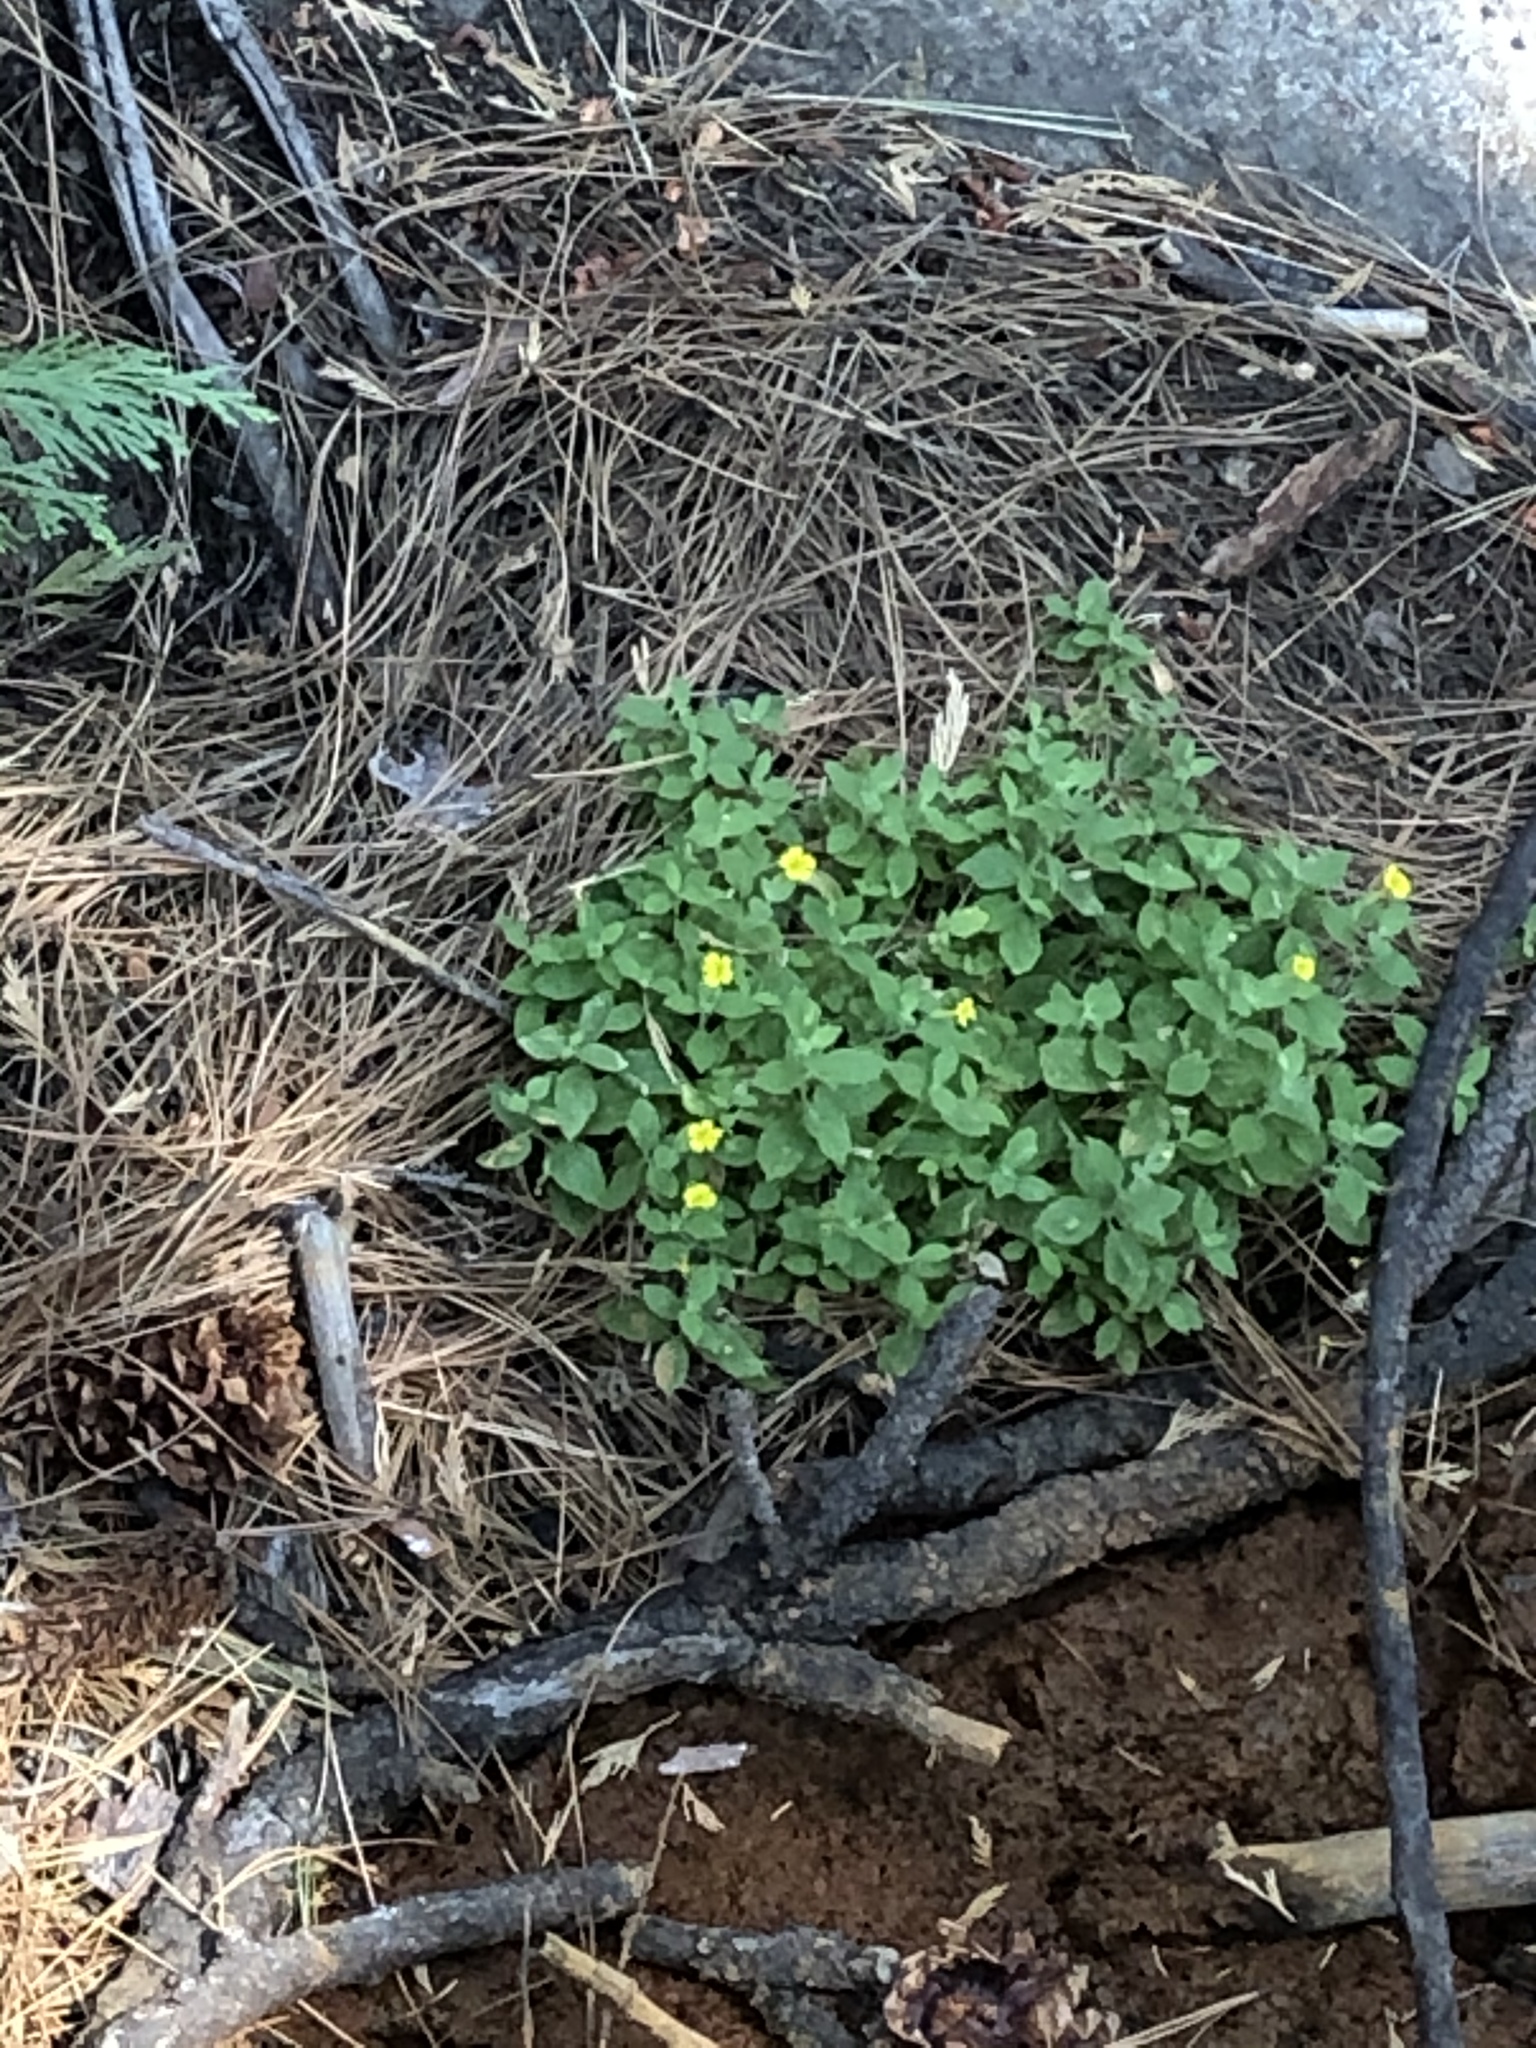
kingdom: Plantae
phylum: Tracheophyta
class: Magnoliopsida
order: Lamiales
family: Phrymaceae
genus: Erythranthe
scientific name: Erythranthe moschata
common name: Muskflower
